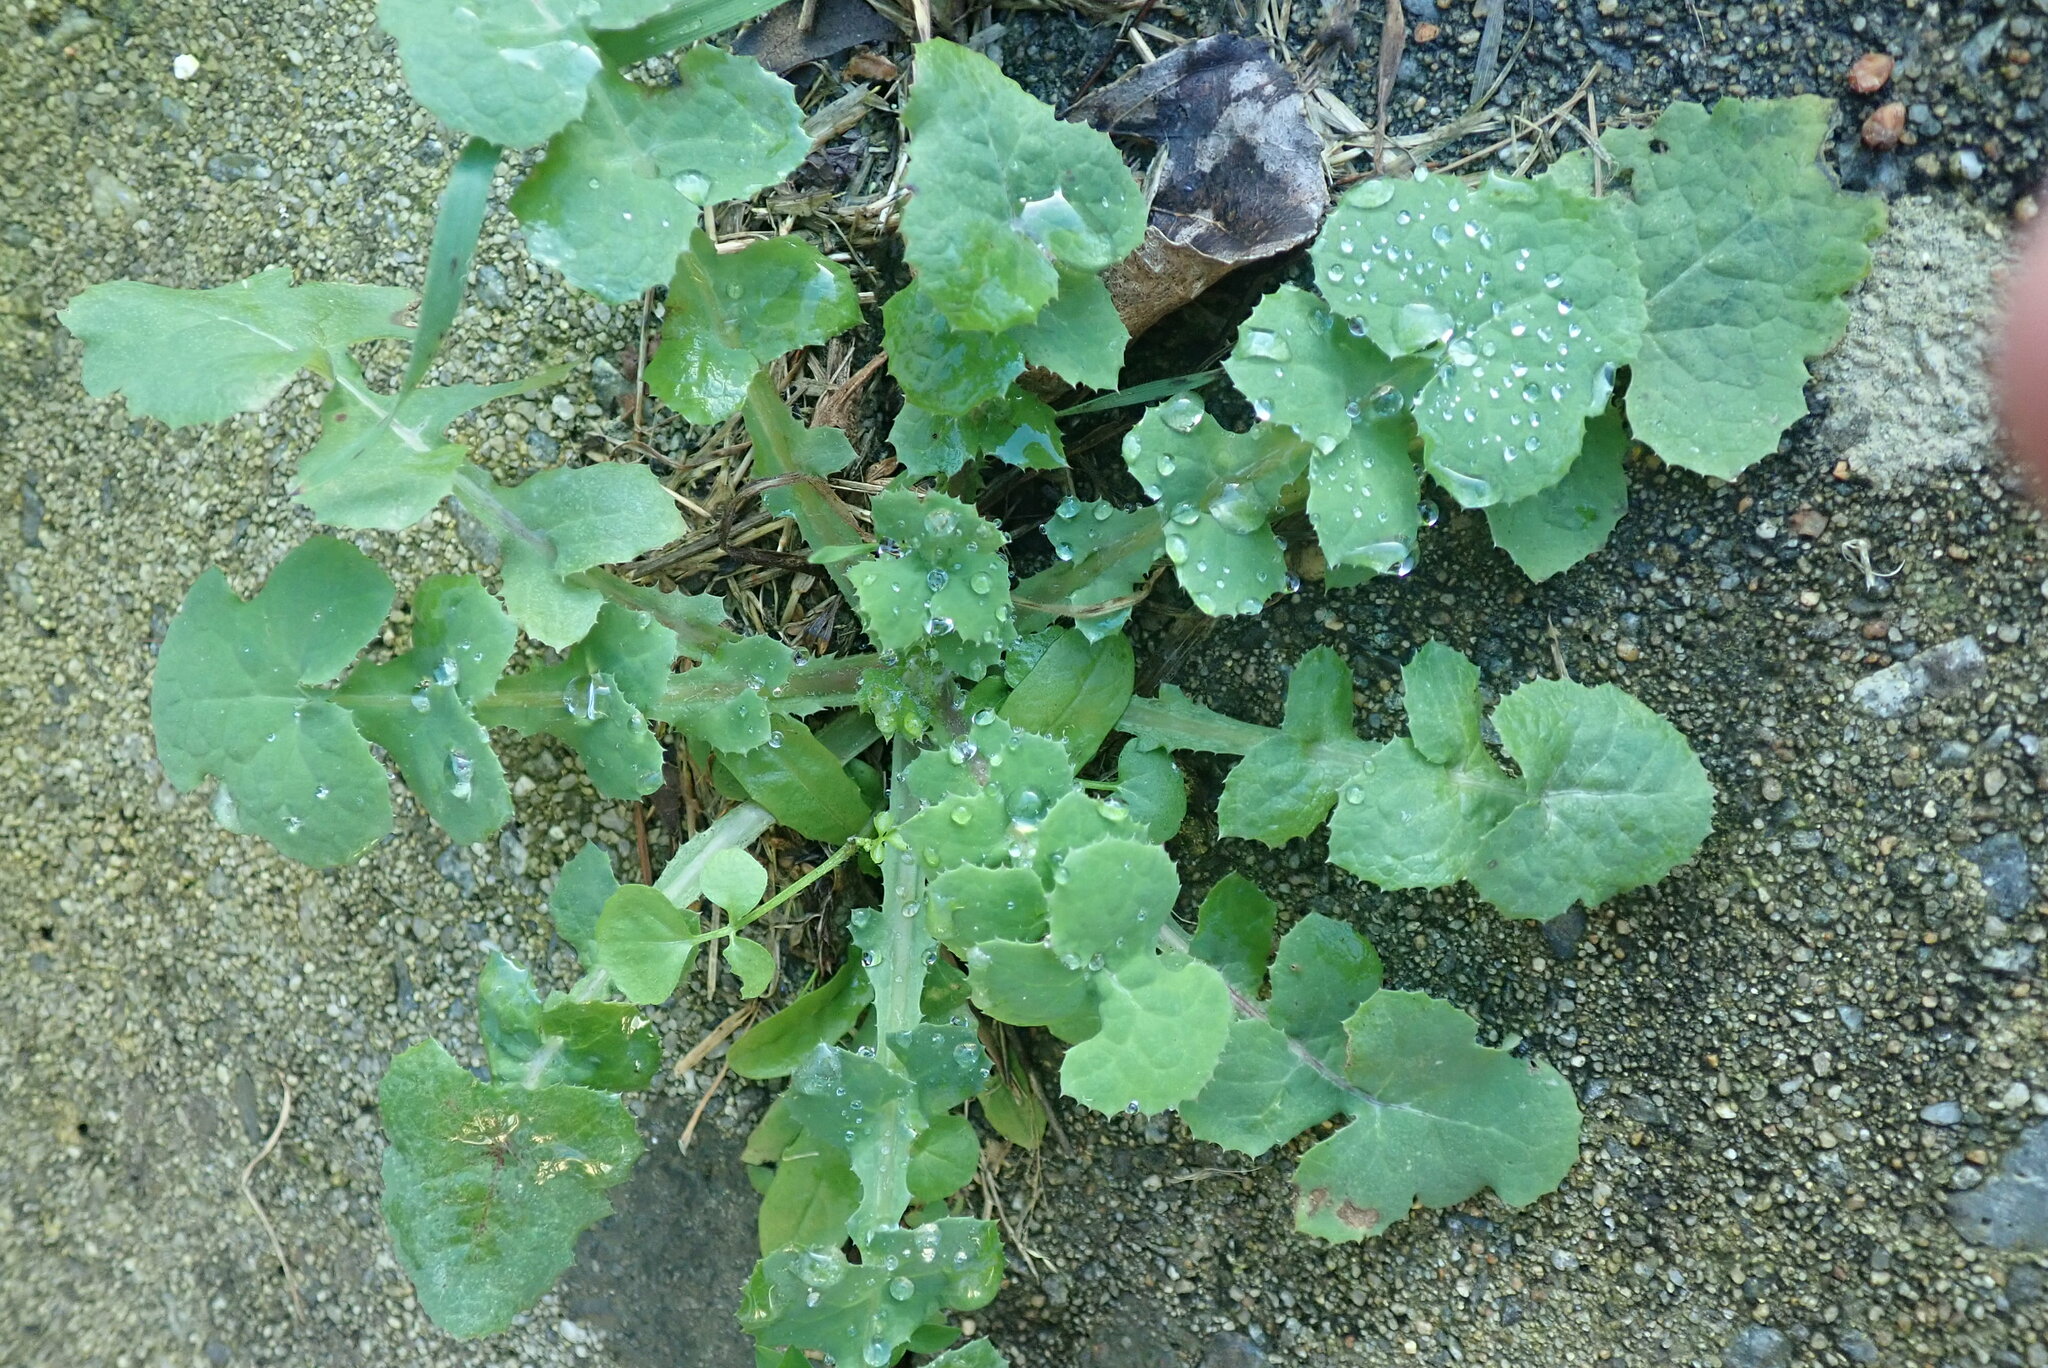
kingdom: Plantae
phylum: Tracheophyta
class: Magnoliopsida
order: Asterales
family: Asteraceae
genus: Sonchus
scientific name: Sonchus oleraceus
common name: Common sowthistle
